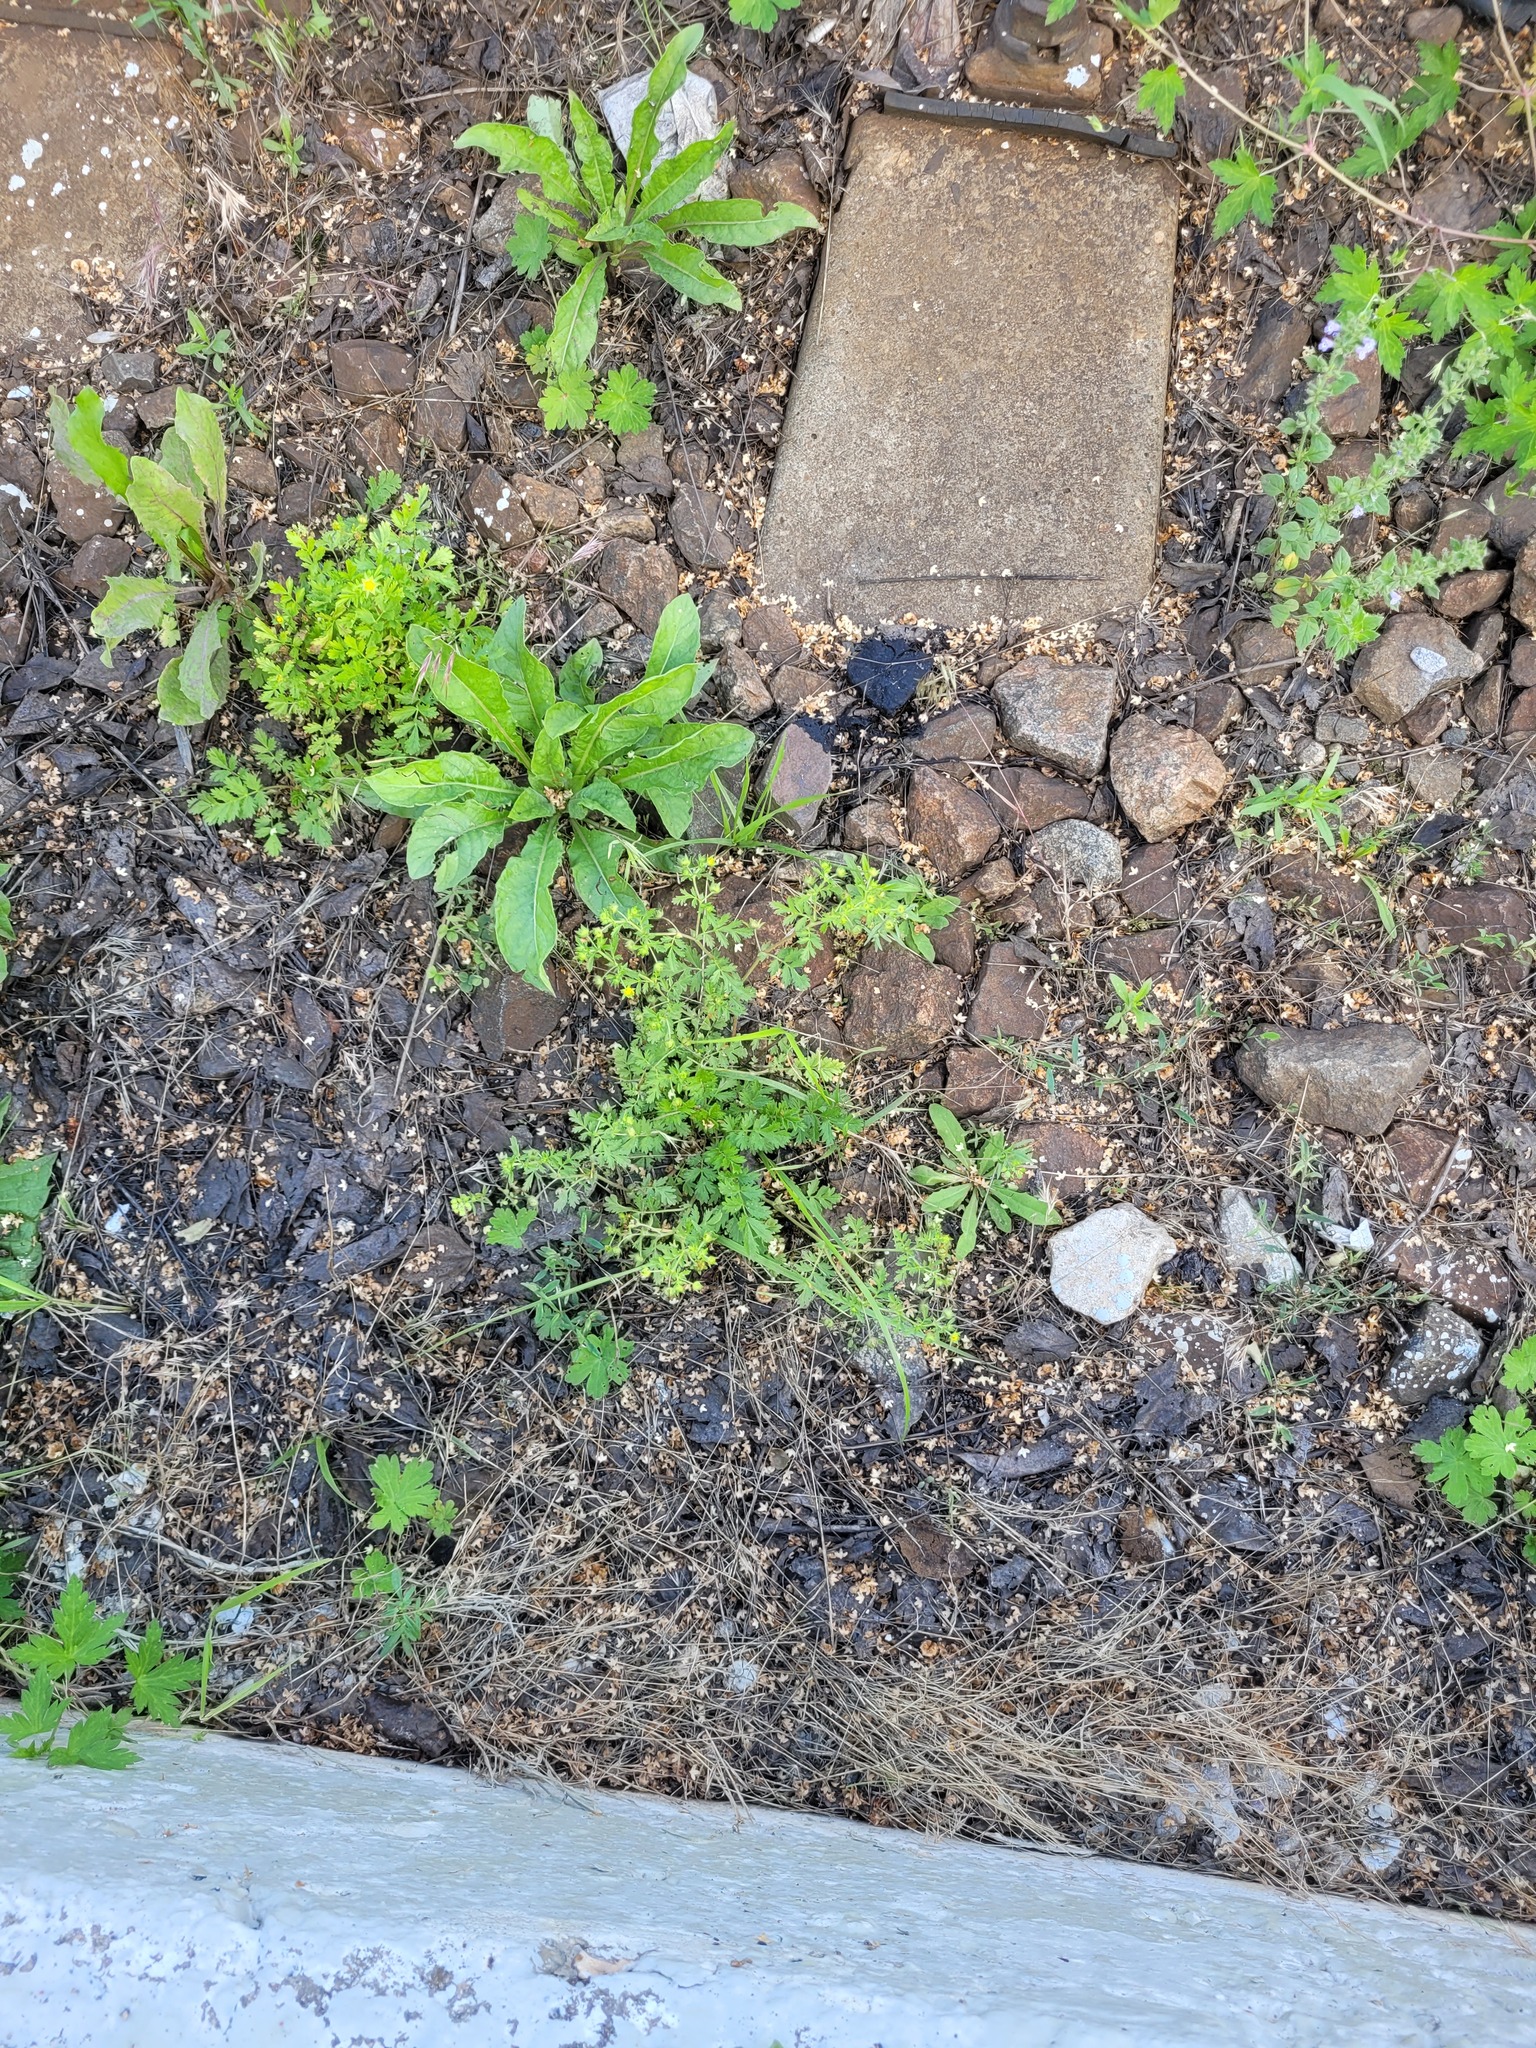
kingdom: Plantae
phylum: Tracheophyta
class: Magnoliopsida
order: Rosales
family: Rosaceae
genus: Potentilla
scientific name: Potentilla supina
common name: Prostrate cinquefoil
